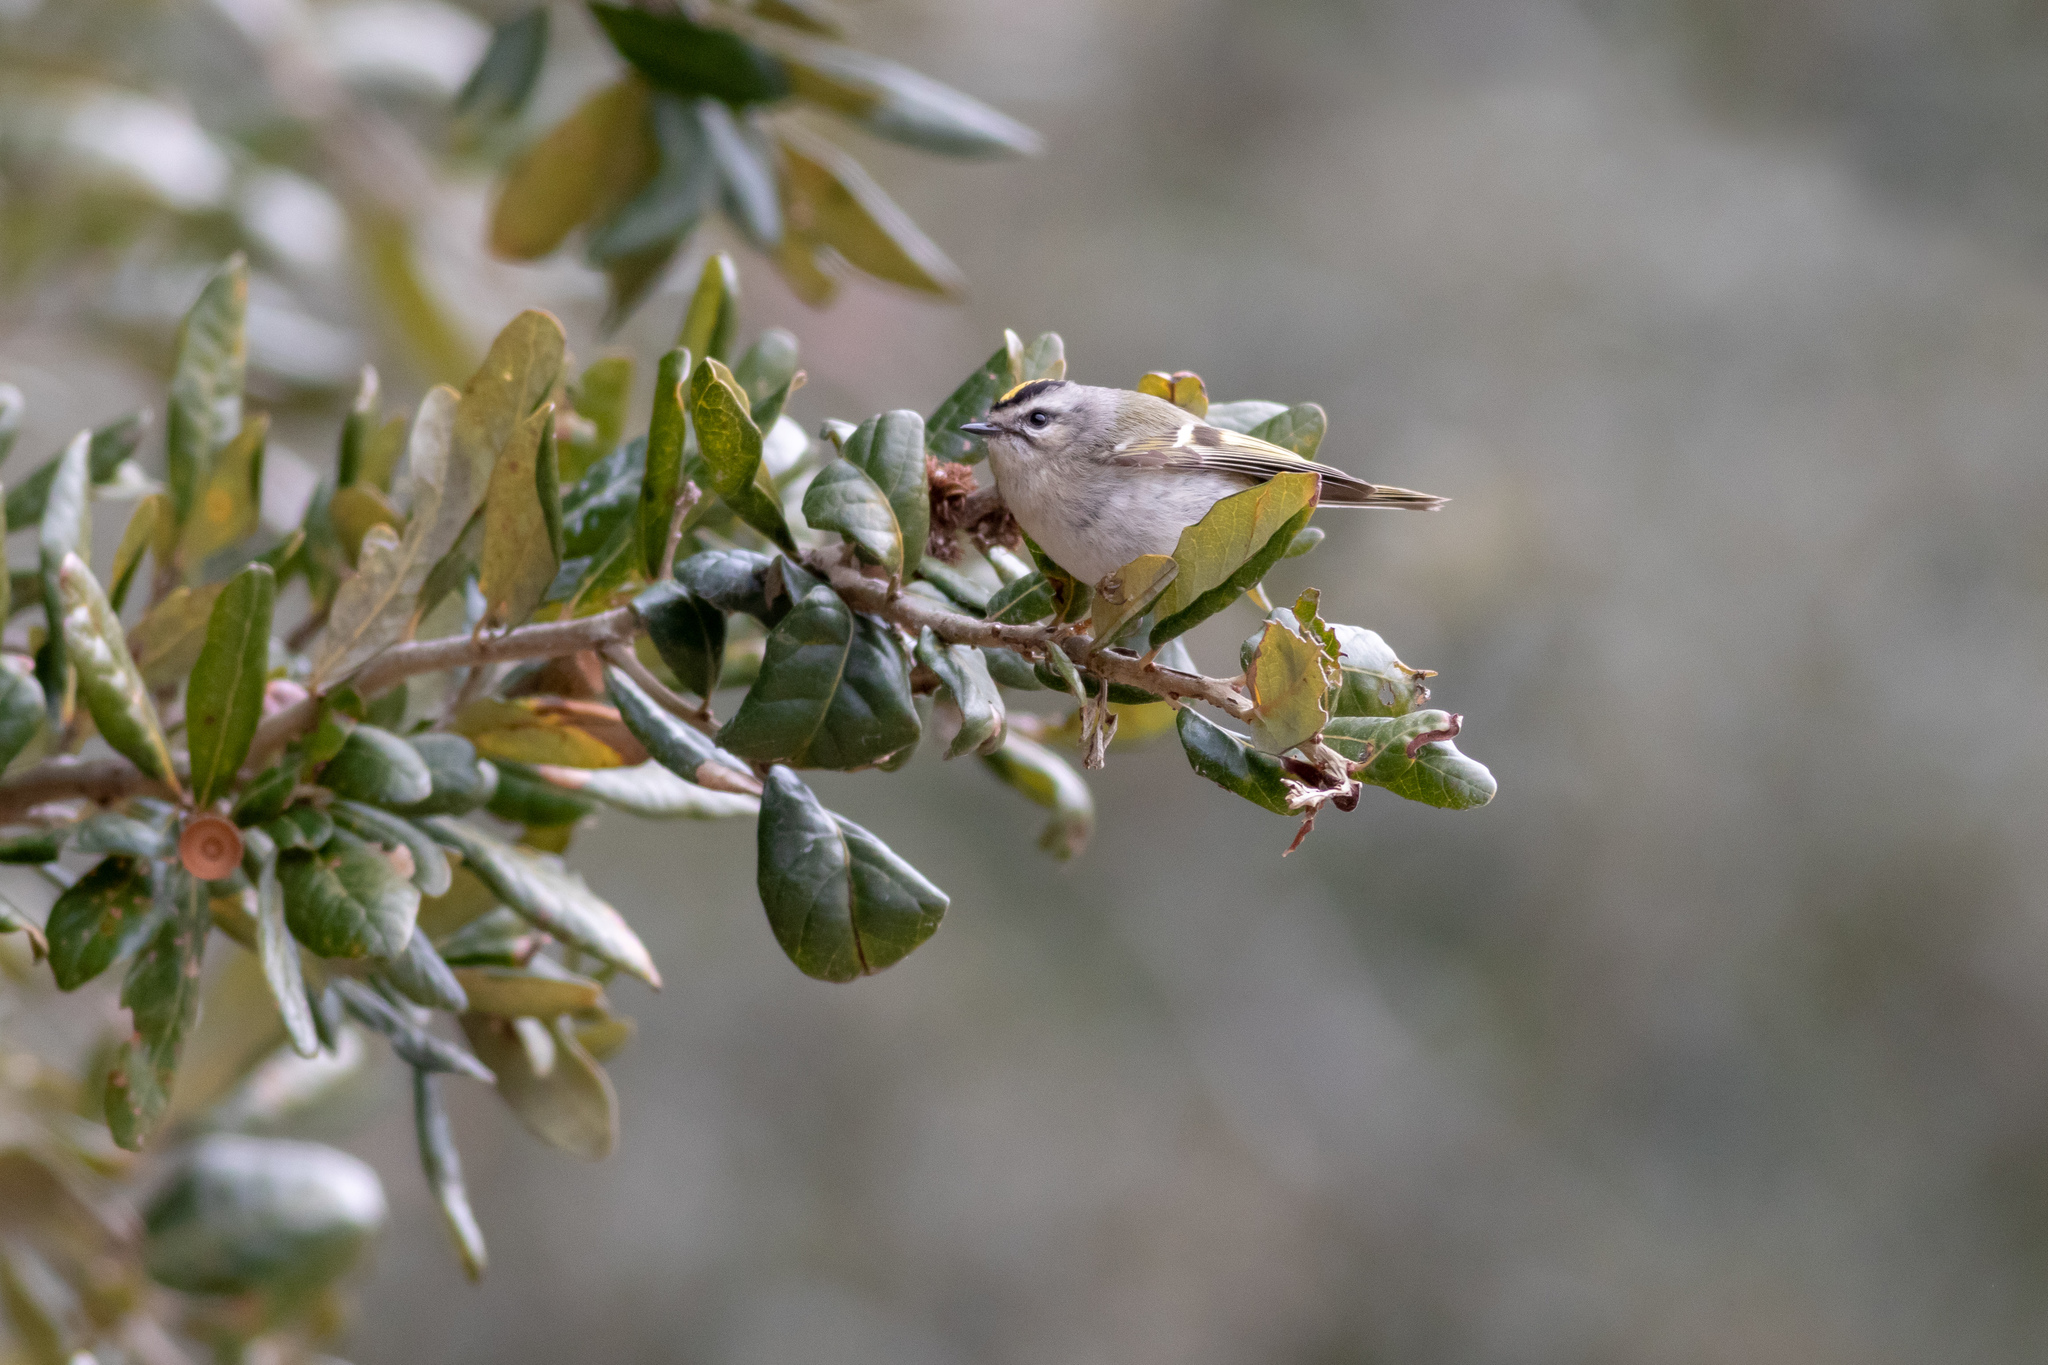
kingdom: Animalia
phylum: Chordata
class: Aves
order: Passeriformes
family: Regulidae
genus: Regulus
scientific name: Regulus satrapa
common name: Golden-crowned kinglet
